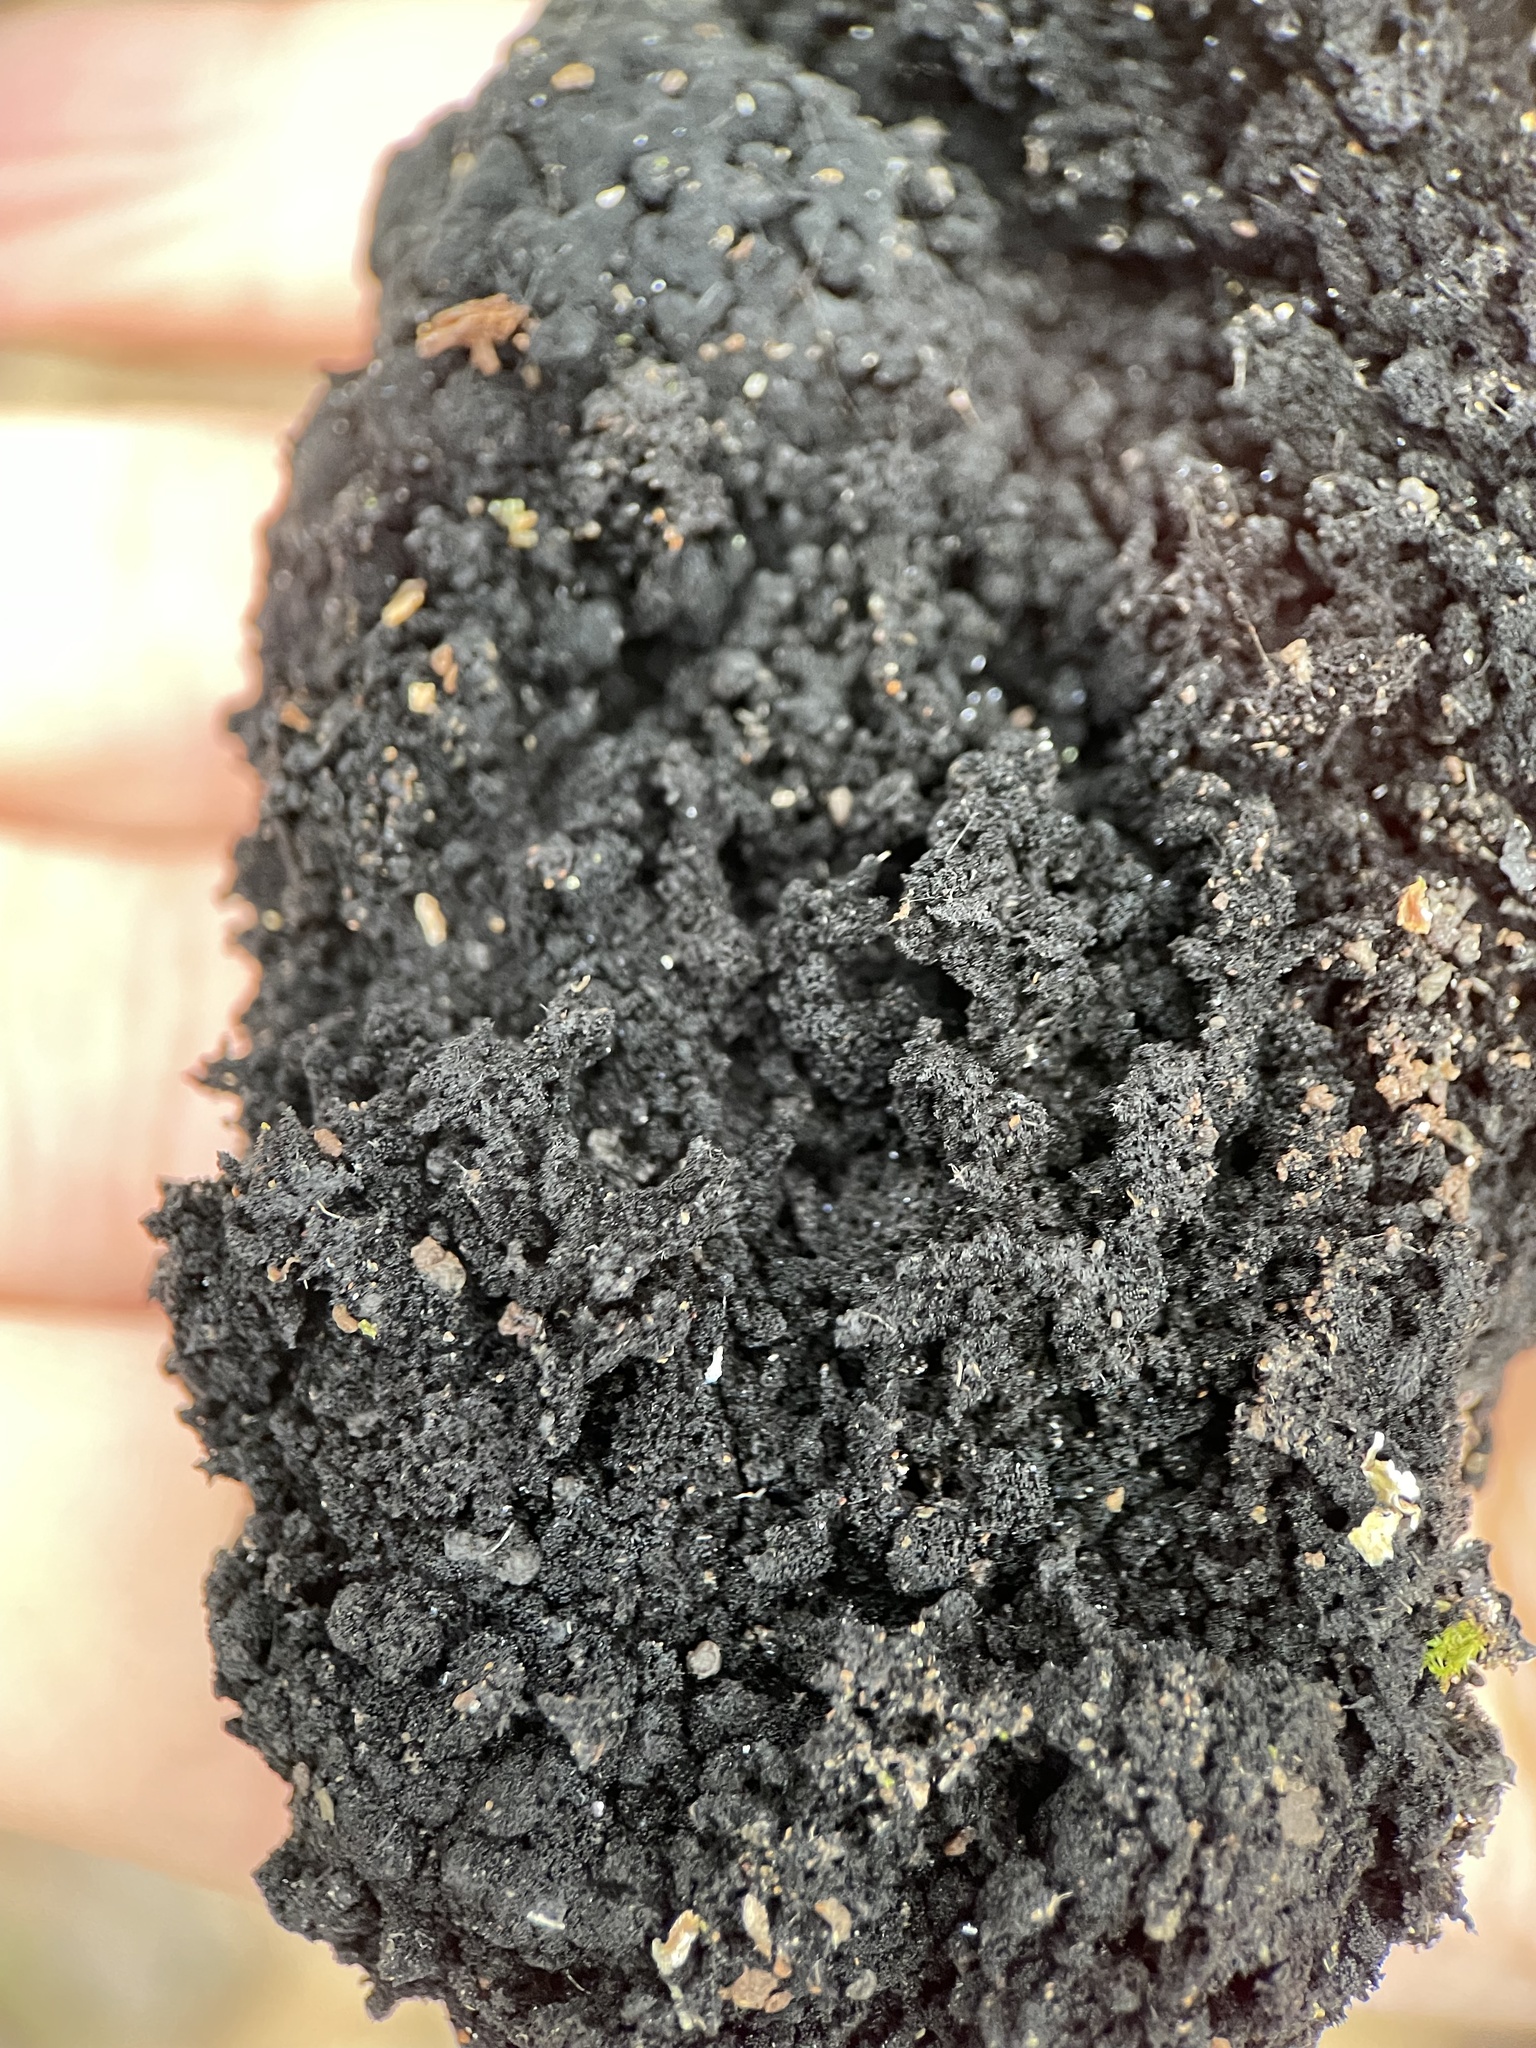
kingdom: Fungi
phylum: Ascomycota
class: Dothideomycetes
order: Capnodiales
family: Capnodiaceae
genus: Scorias
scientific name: Scorias spongiosa
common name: Black sooty mold
